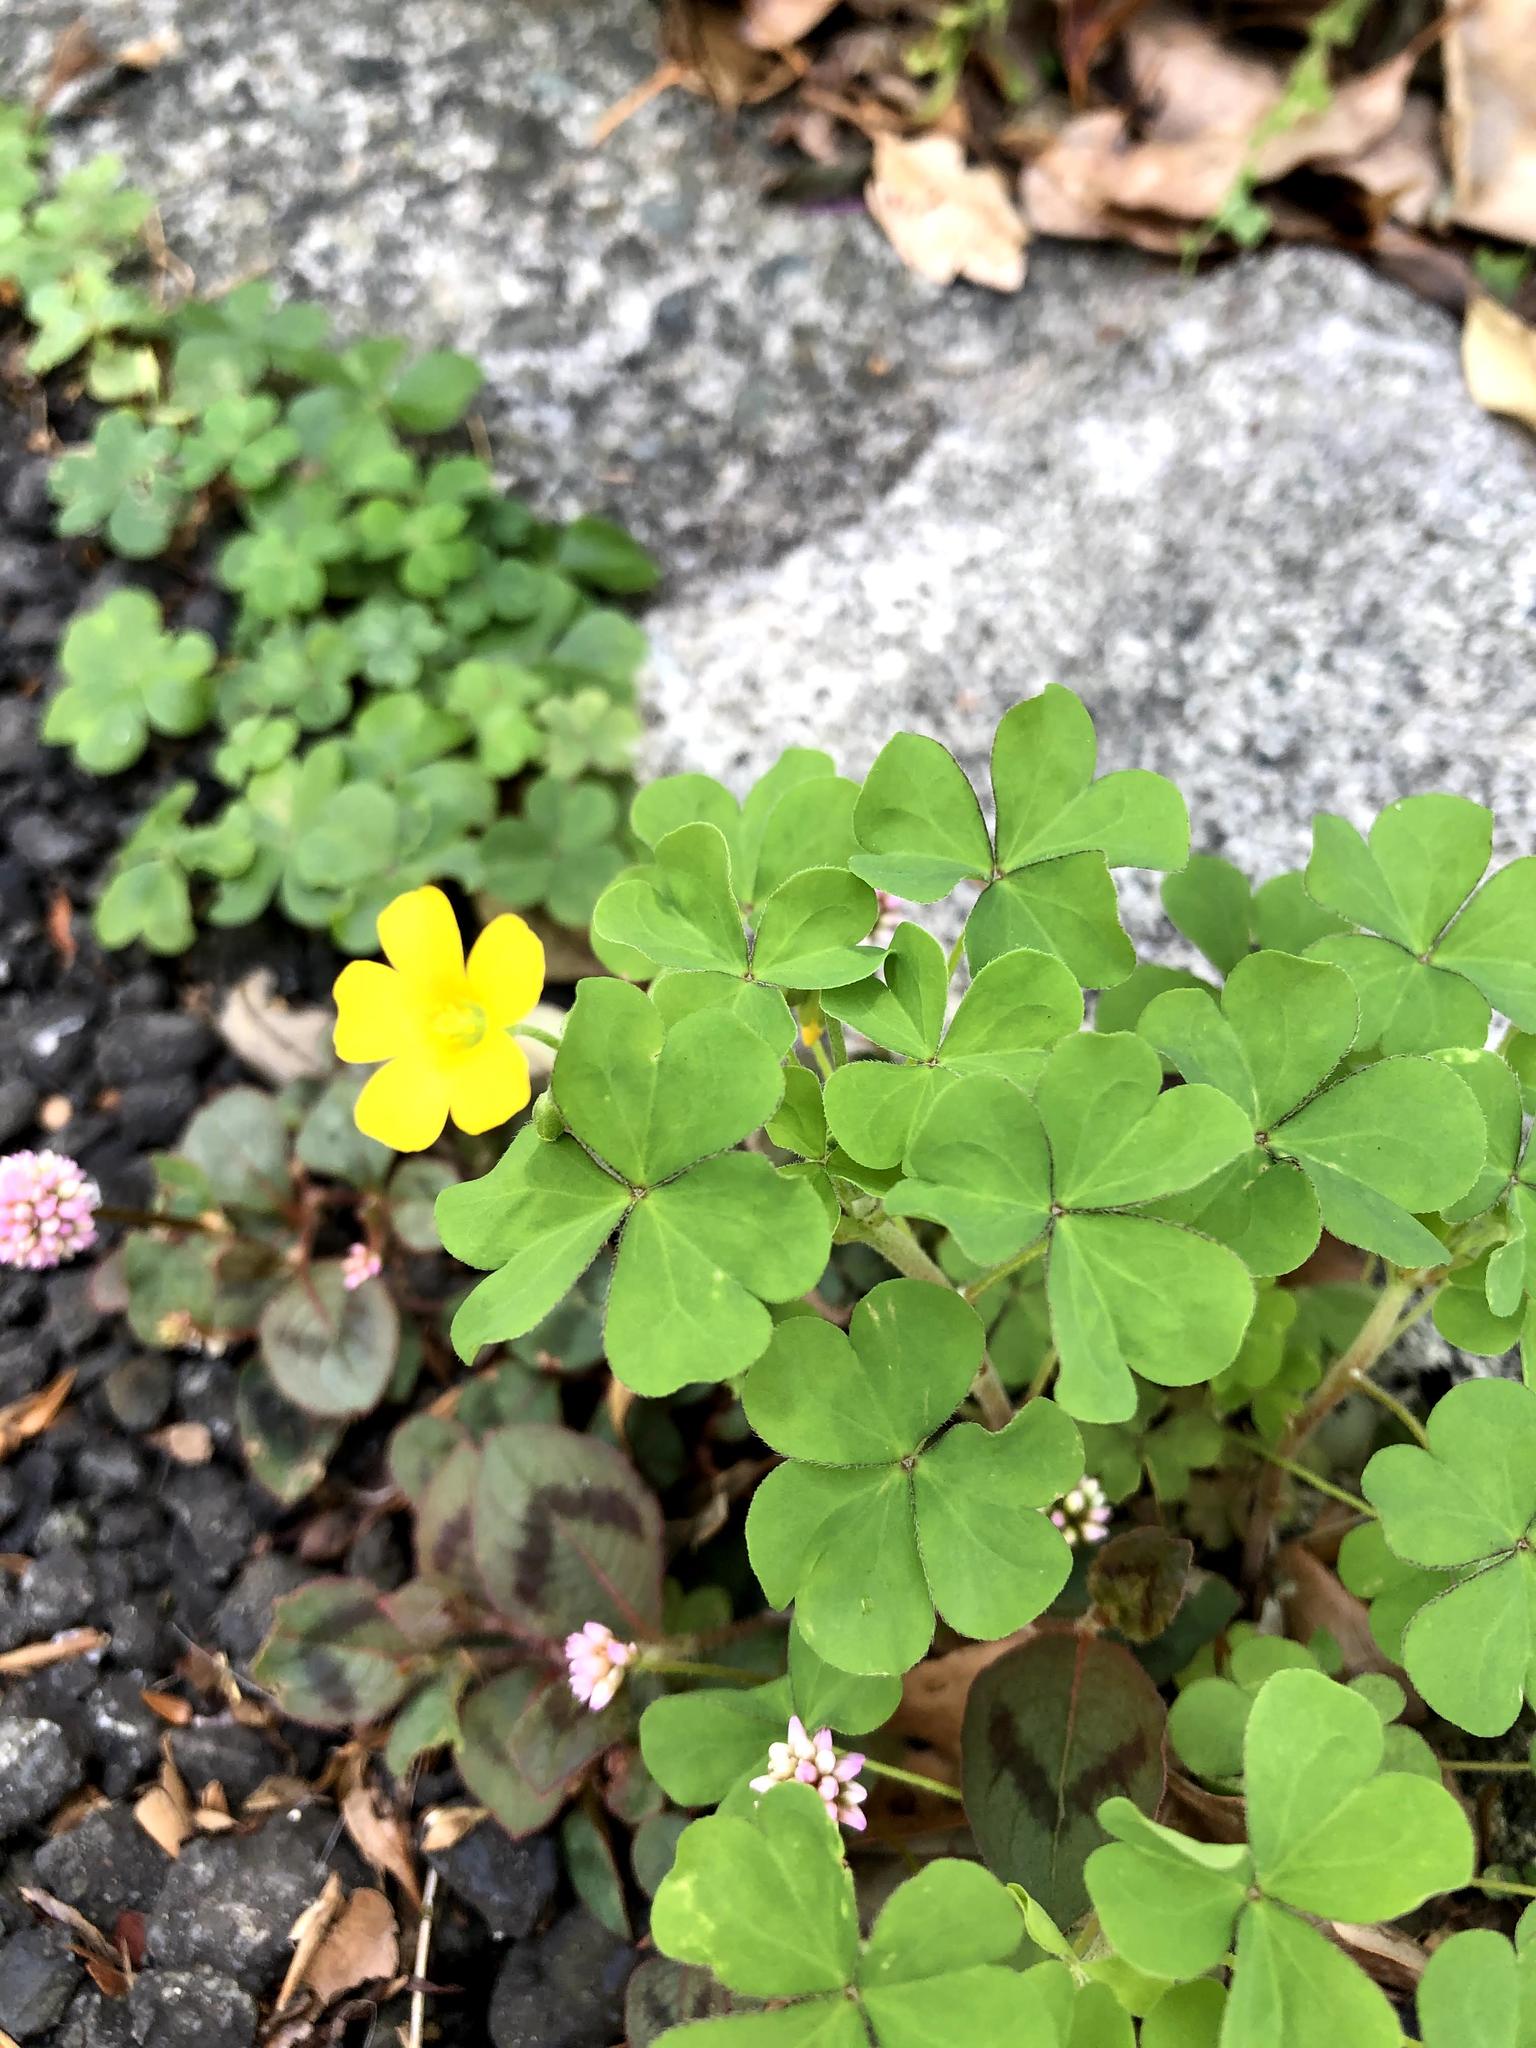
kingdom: Plantae
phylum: Tracheophyta
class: Magnoliopsida
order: Oxalidales
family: Oxalidaceae
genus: Oxalis
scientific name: Oxalis corniculata
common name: Procumbent yellow-sorrel
